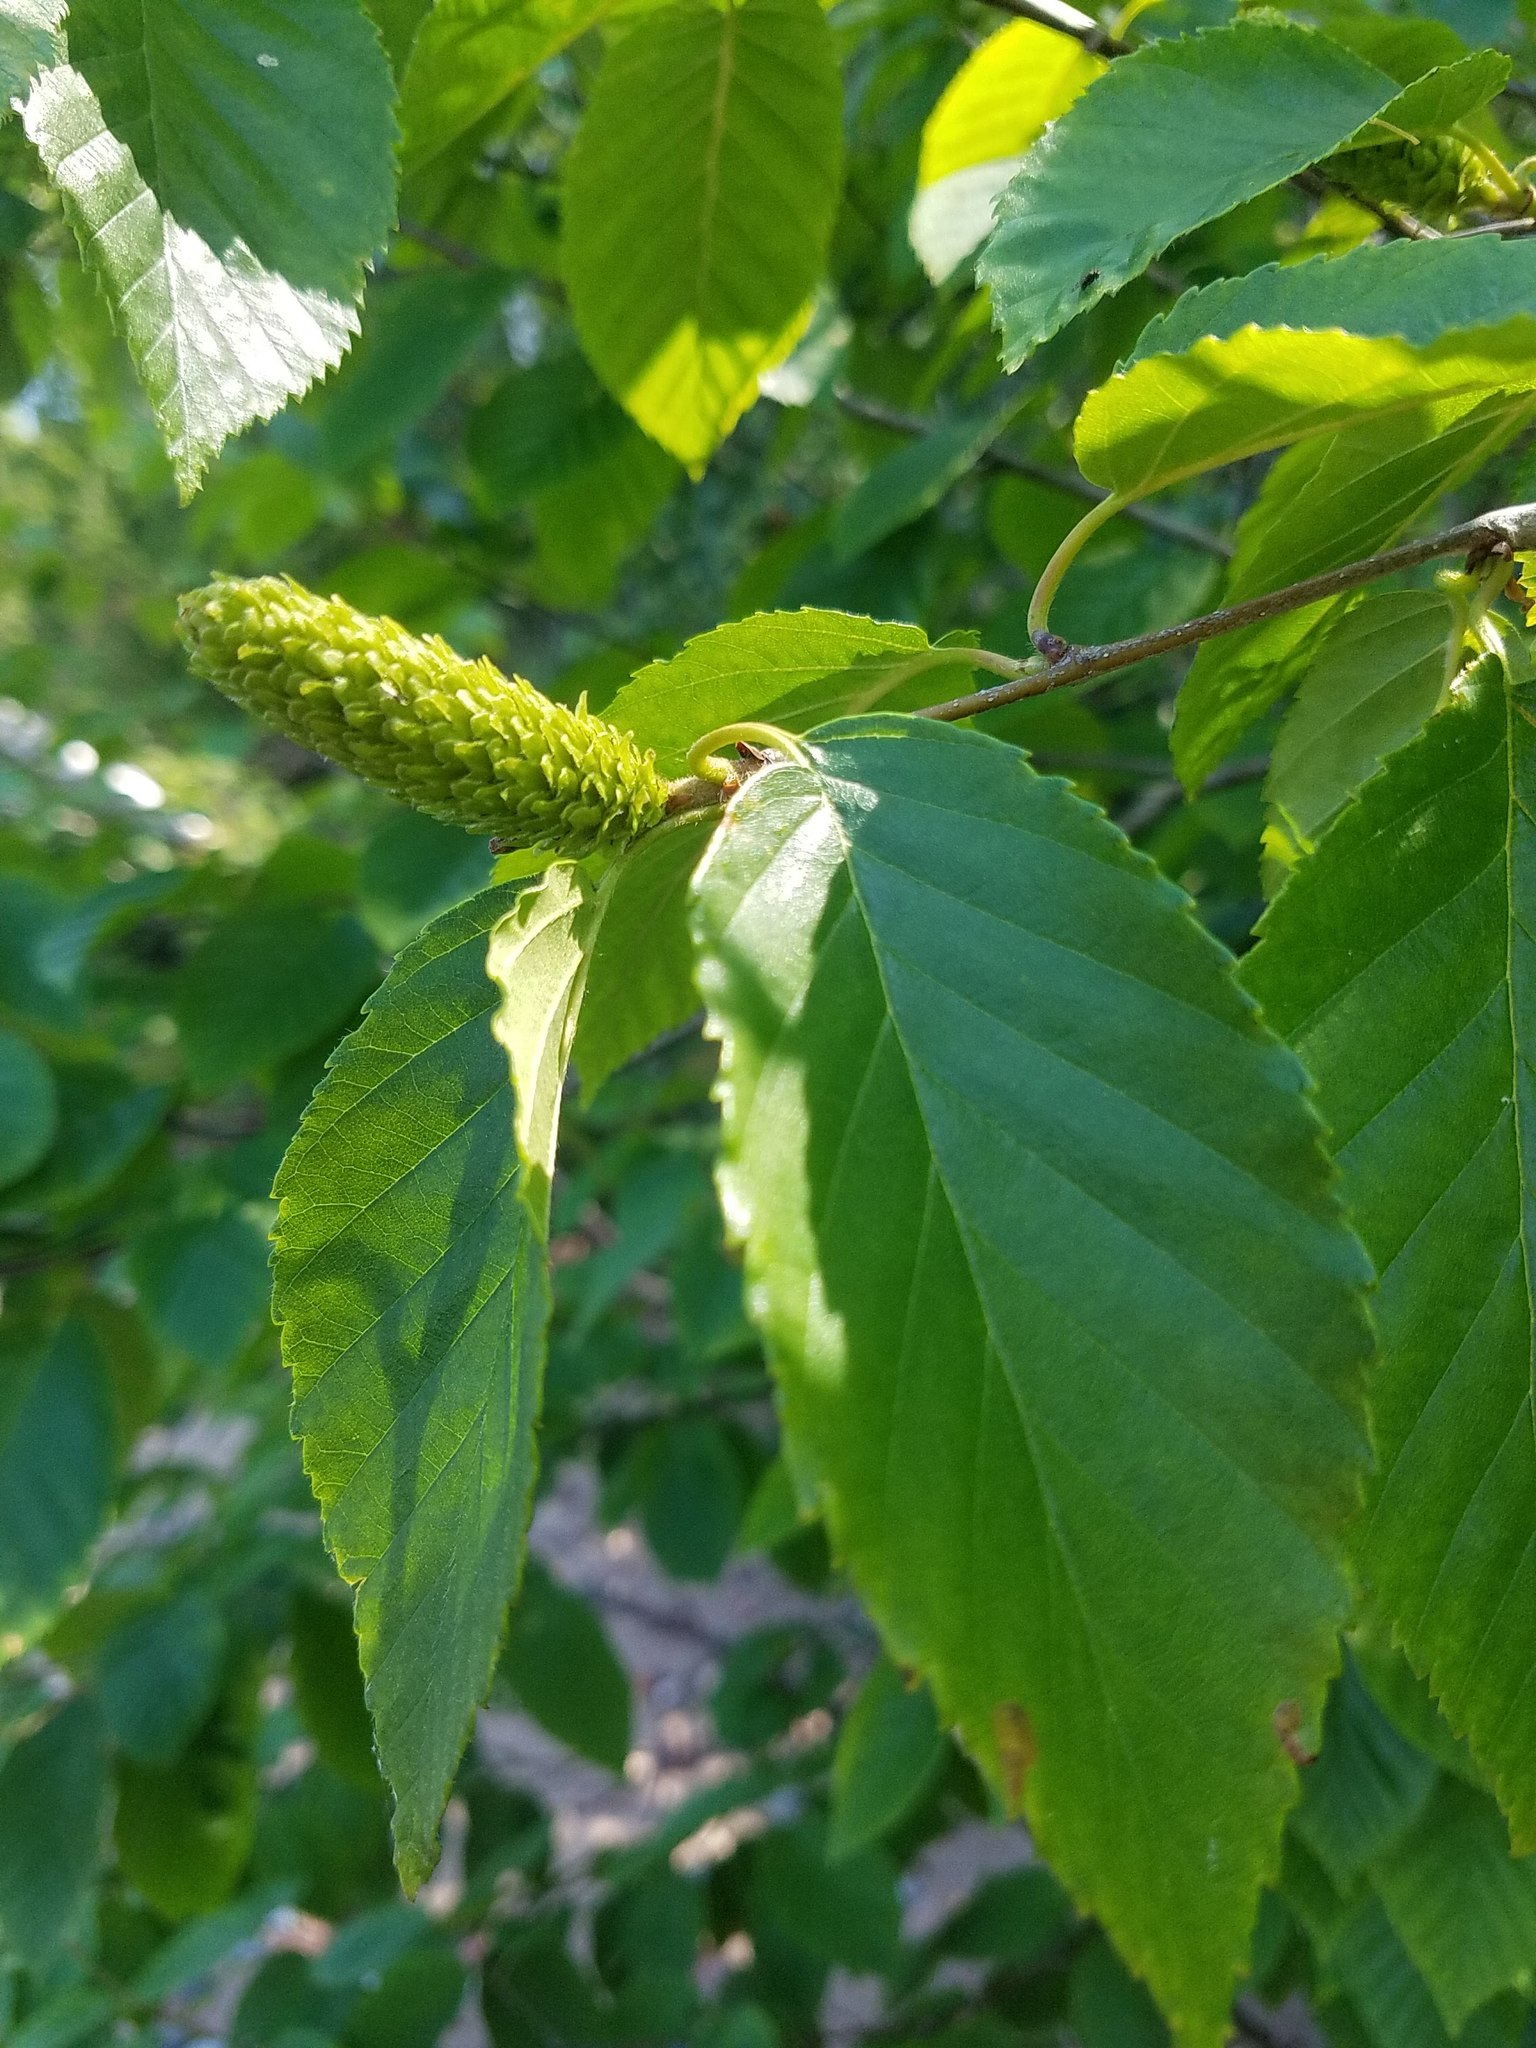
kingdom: Plantae
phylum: Tracheophyta
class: Magnoliopsida
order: Fagales
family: Betulaceae
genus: Betula
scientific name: Betula alleghaniensis
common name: Yellow birch
